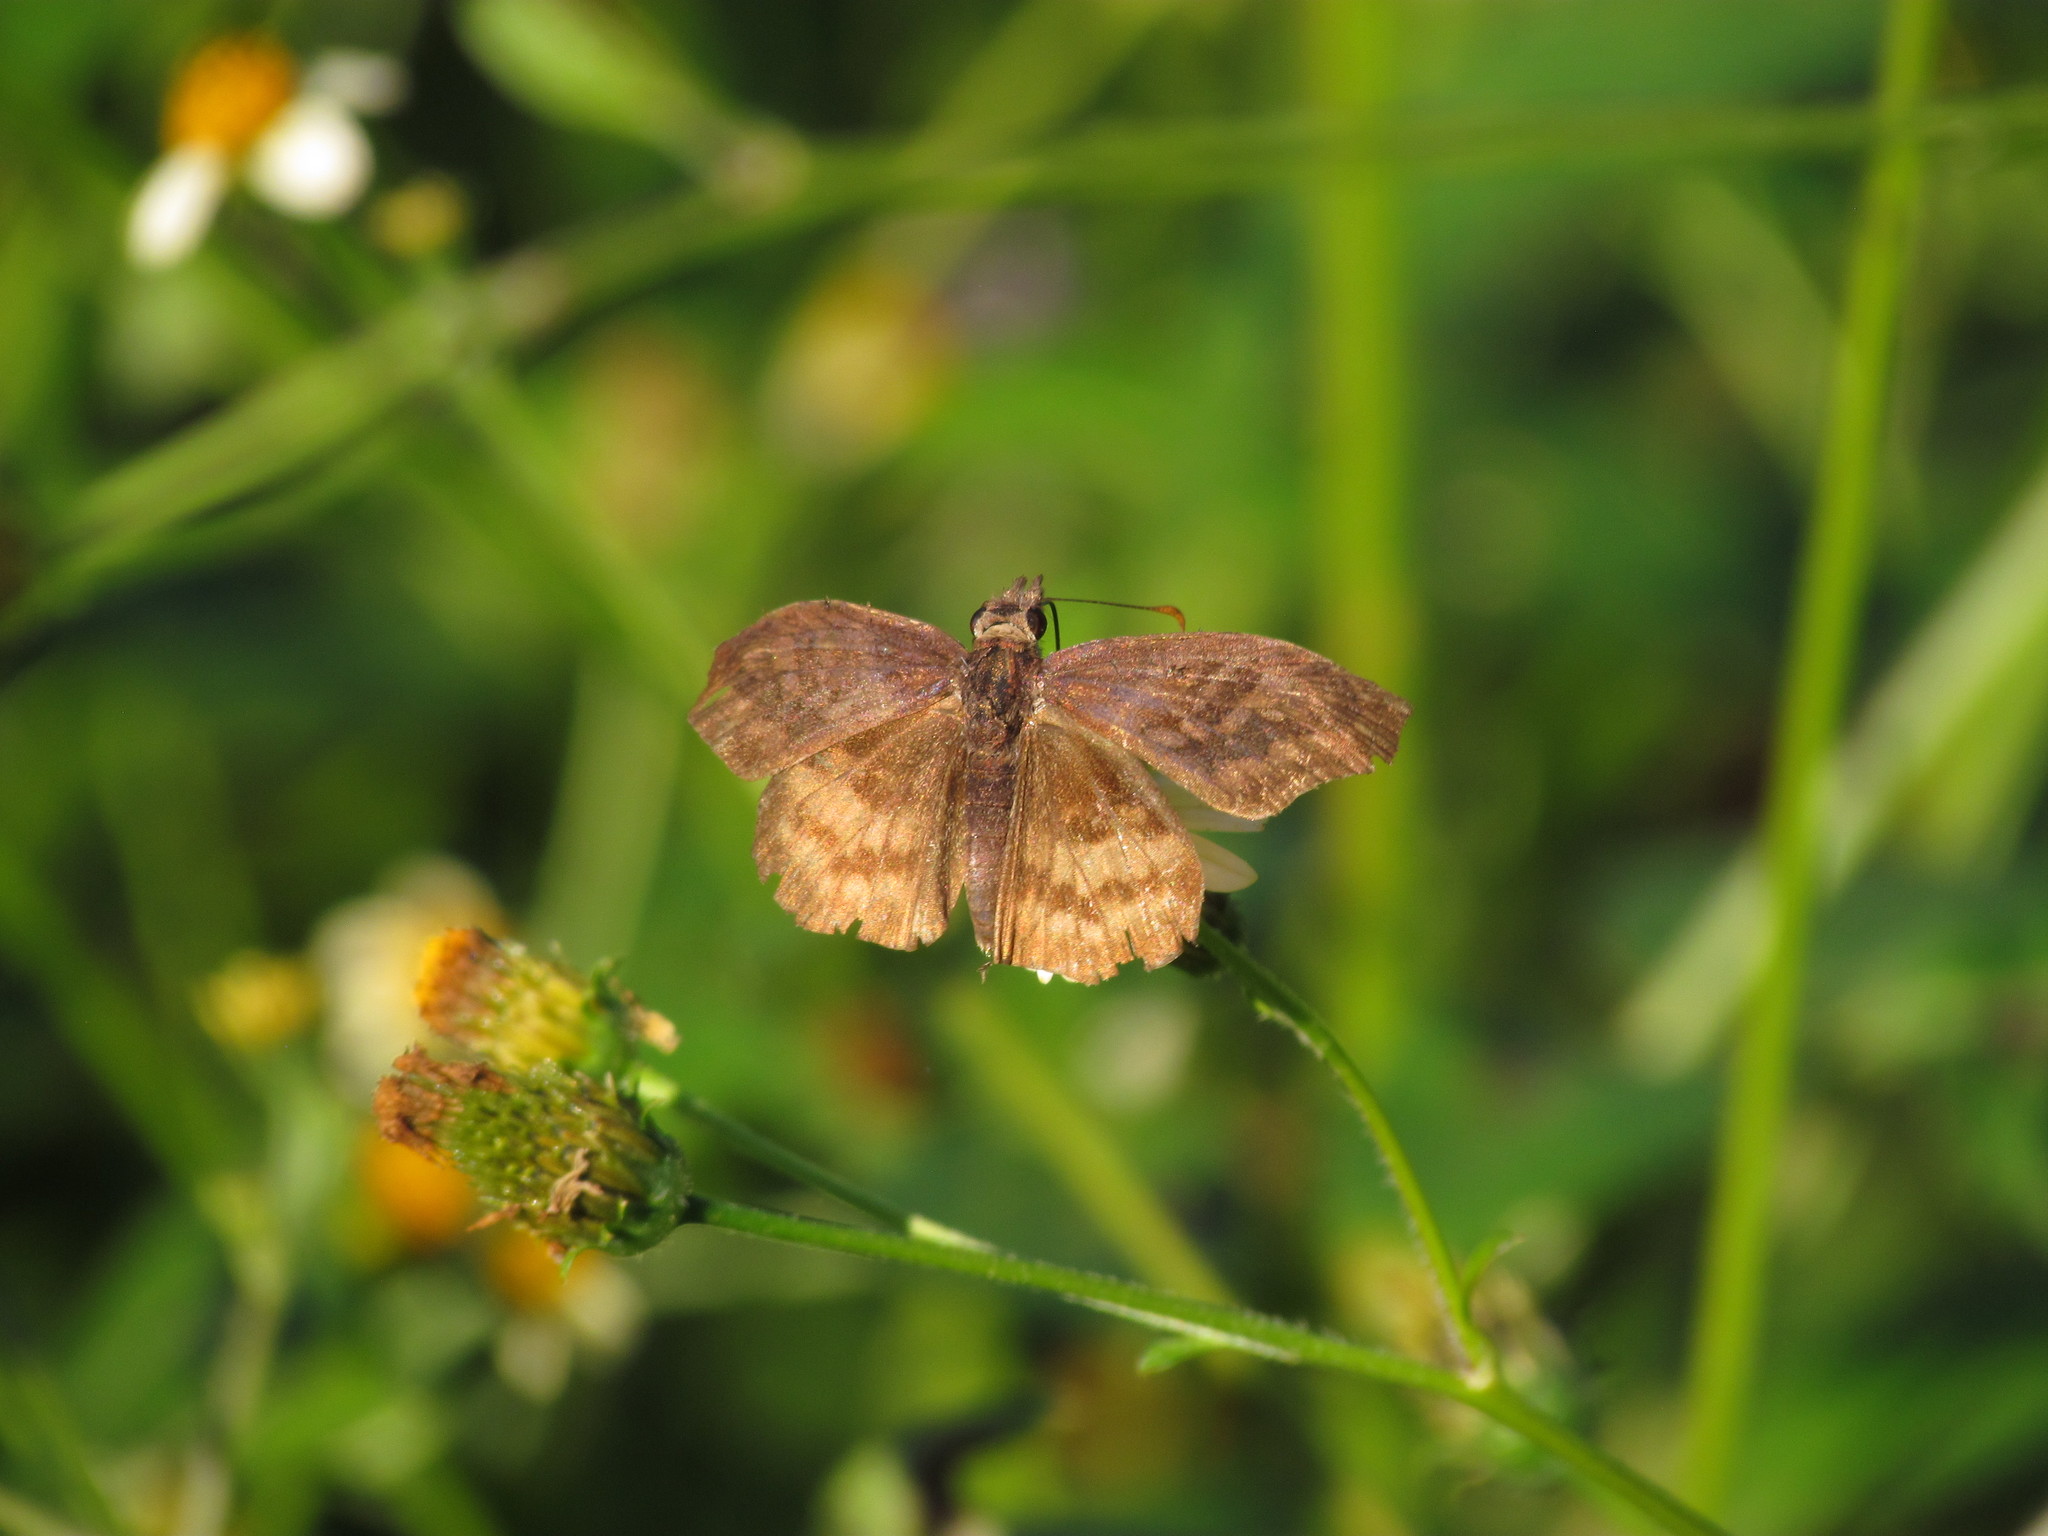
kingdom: Animalia
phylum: Arthropoda
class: Insecta
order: Lepidoptera
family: Hesperiidae
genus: Theagenes
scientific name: Theagenes dichrous
